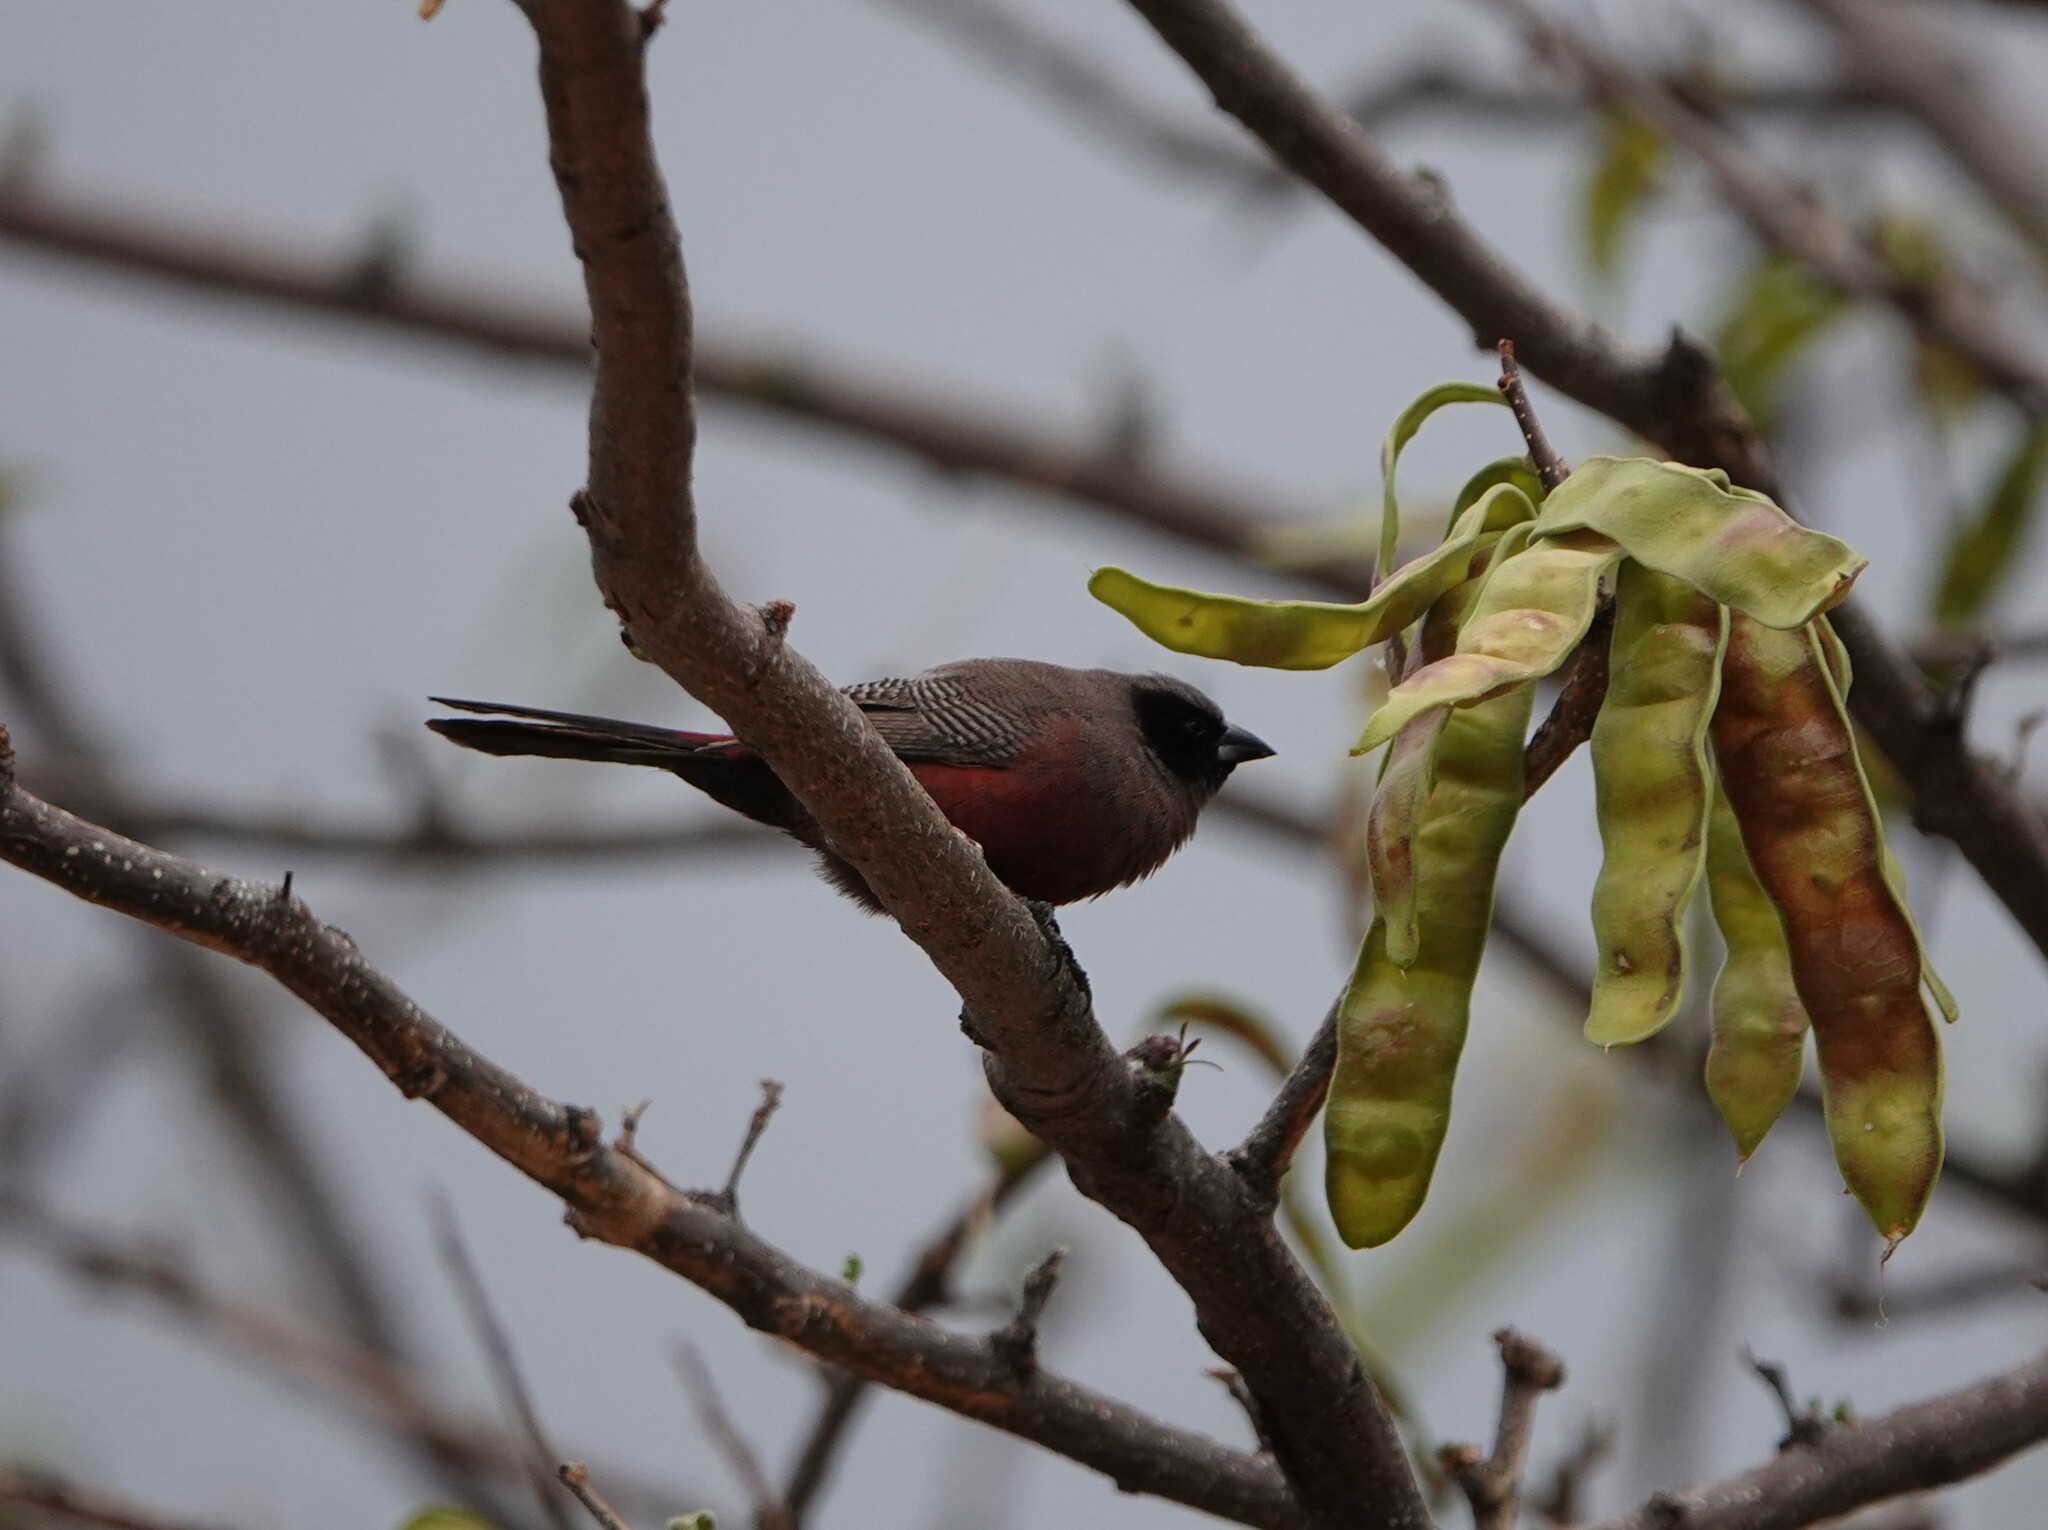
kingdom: Animalia
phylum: Chordata
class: Aves
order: Passeriformes
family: Estrildidae
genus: Estrilda
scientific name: Estrilda erythronotos
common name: Black-faced waxbill
